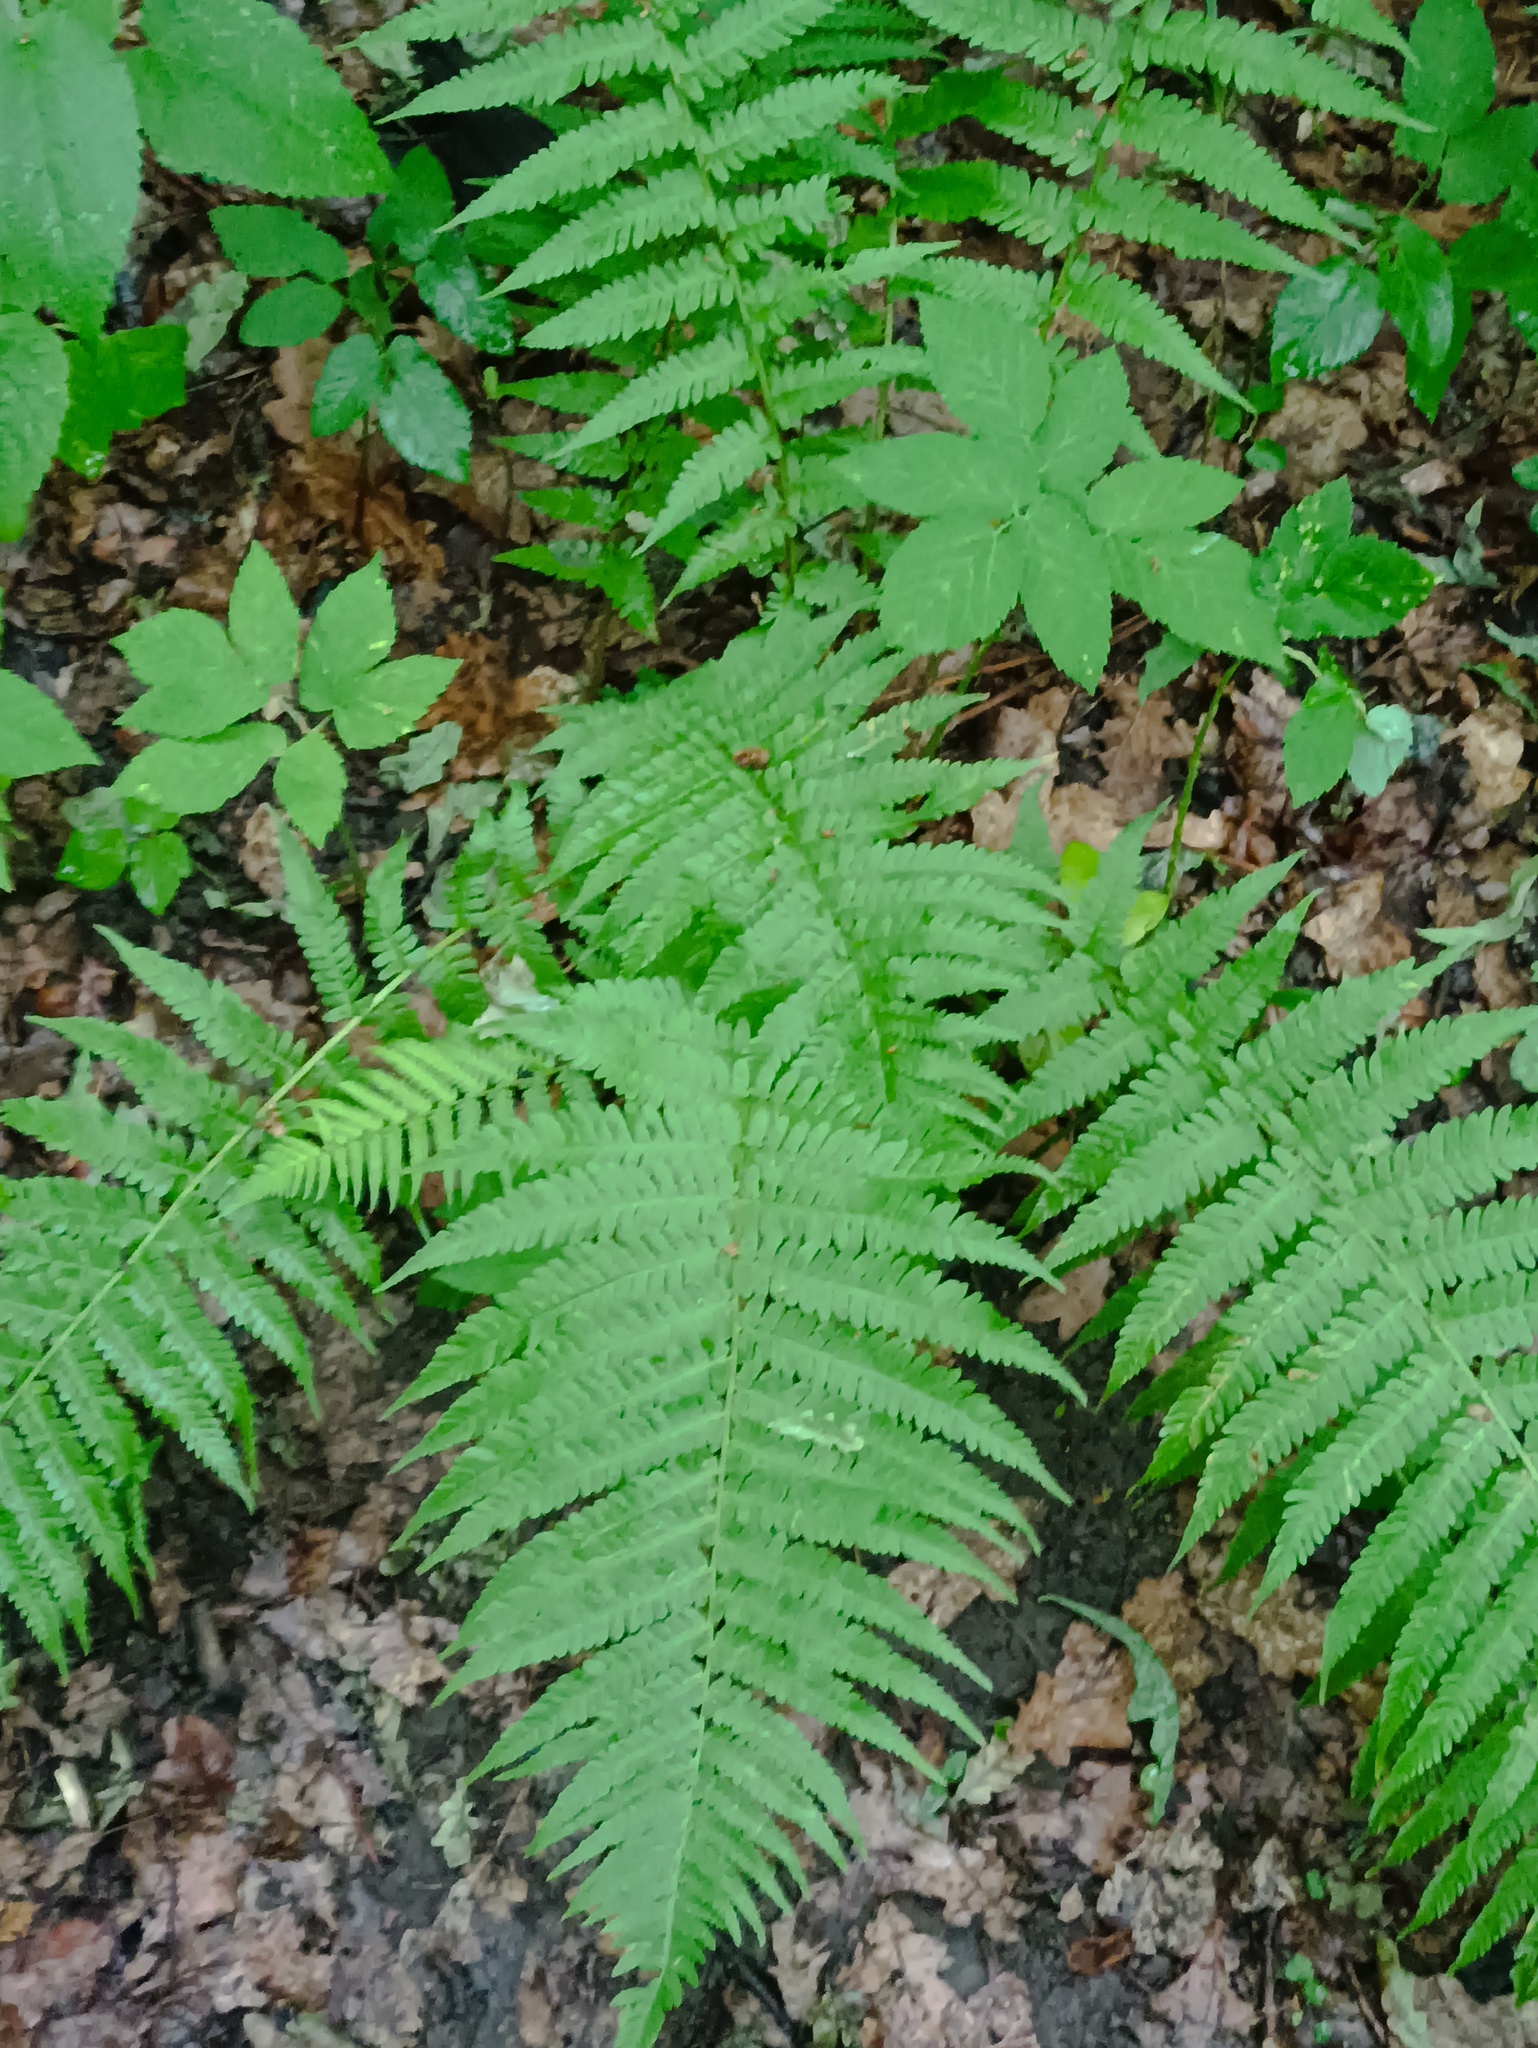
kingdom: Plantae
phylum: Tracheophyta
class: Polypodiopsida
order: Polypodiales
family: Dryopteridaceae
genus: Dryopteris
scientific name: Dryopteris filix-mas
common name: Male fern
